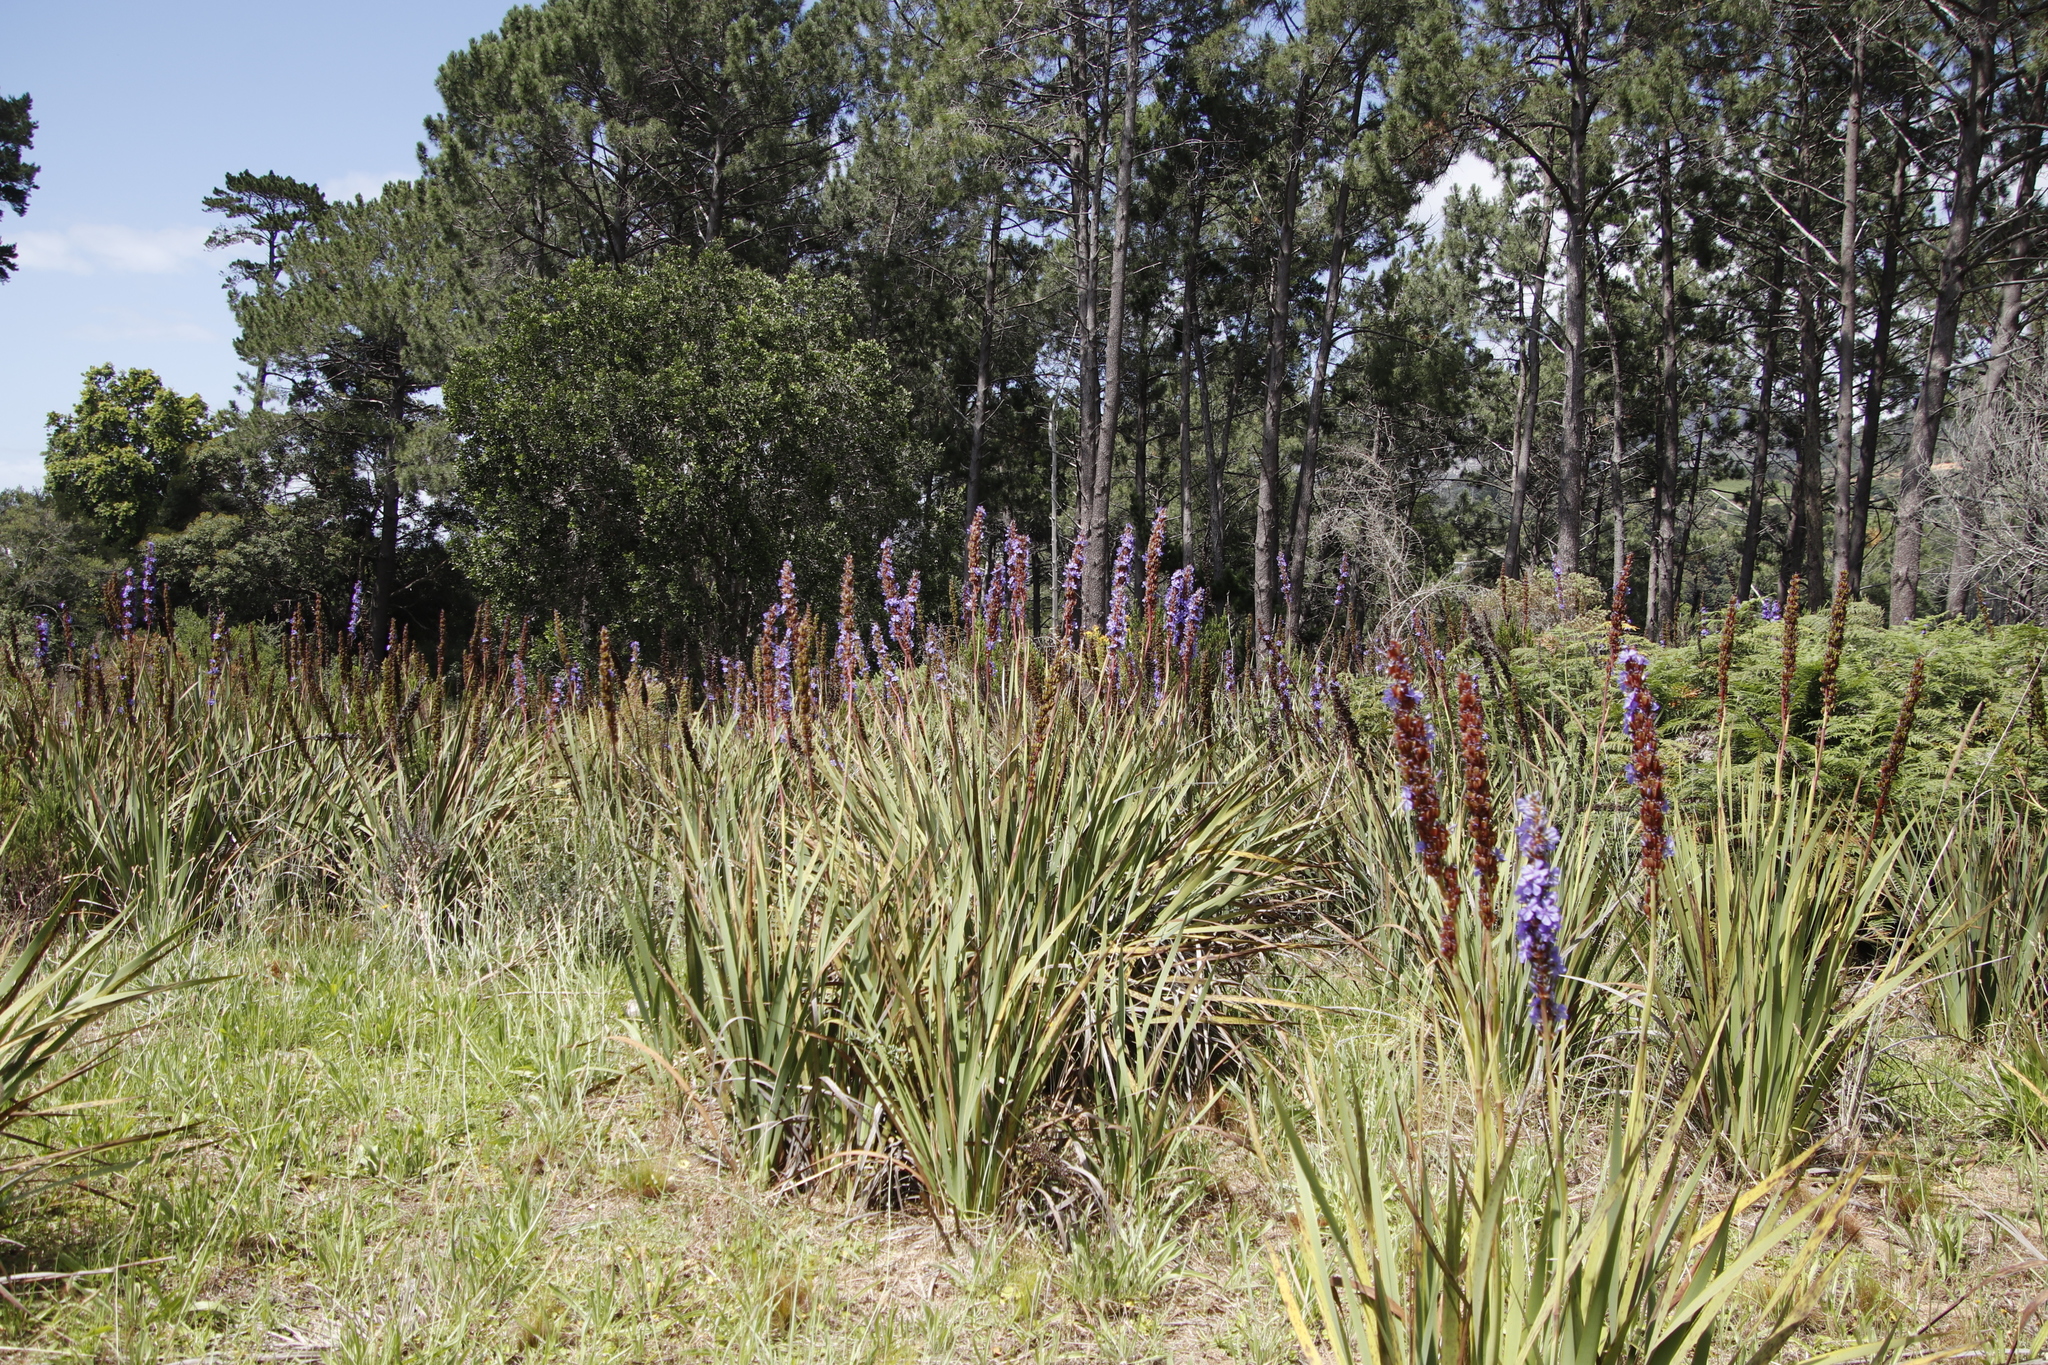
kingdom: Plantae
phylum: Tracheophyta
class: Liliopsida
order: Asparagales
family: Iridaceae
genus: Aristea
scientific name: Aristea capitata
